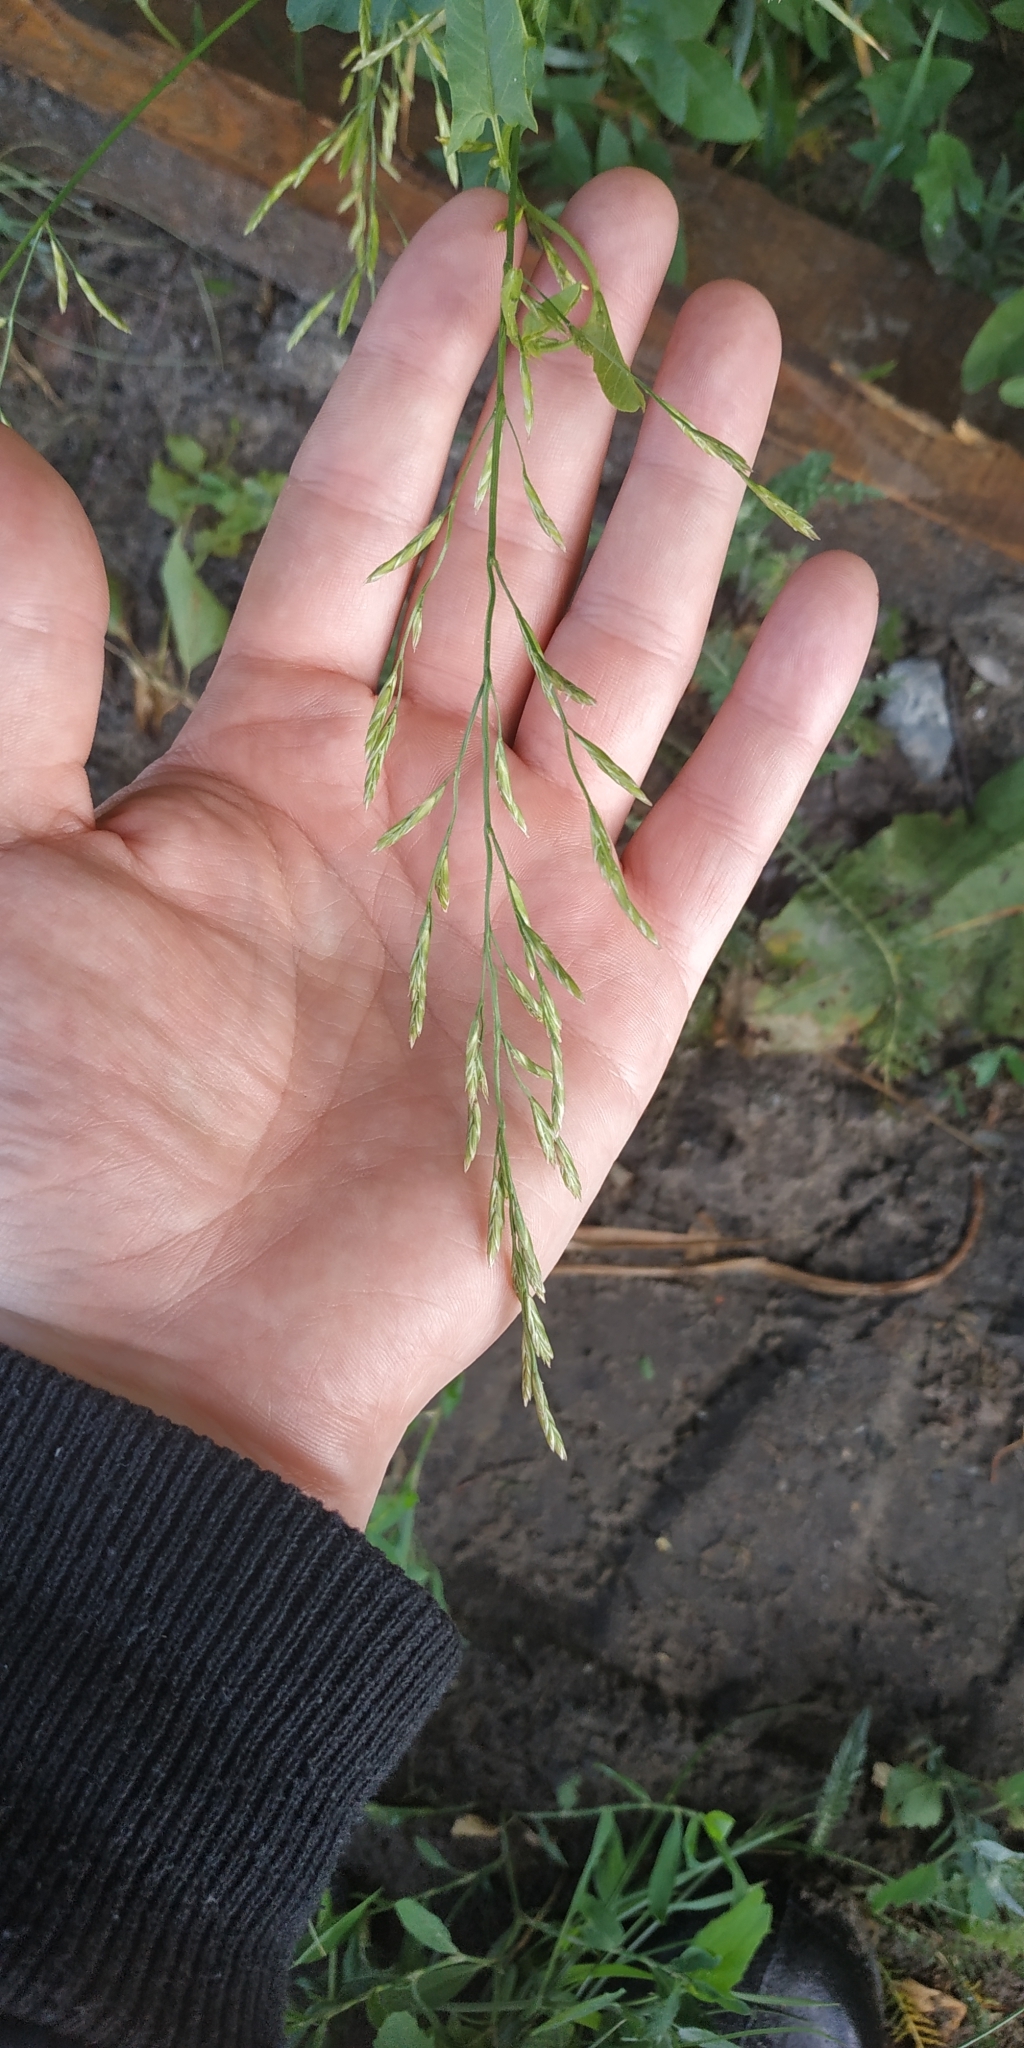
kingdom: Plantae
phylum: Tracheophyta
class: Liliopsida
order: Poales
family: Poaceae
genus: Lolium
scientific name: Lolium pratense
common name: Dover grass
